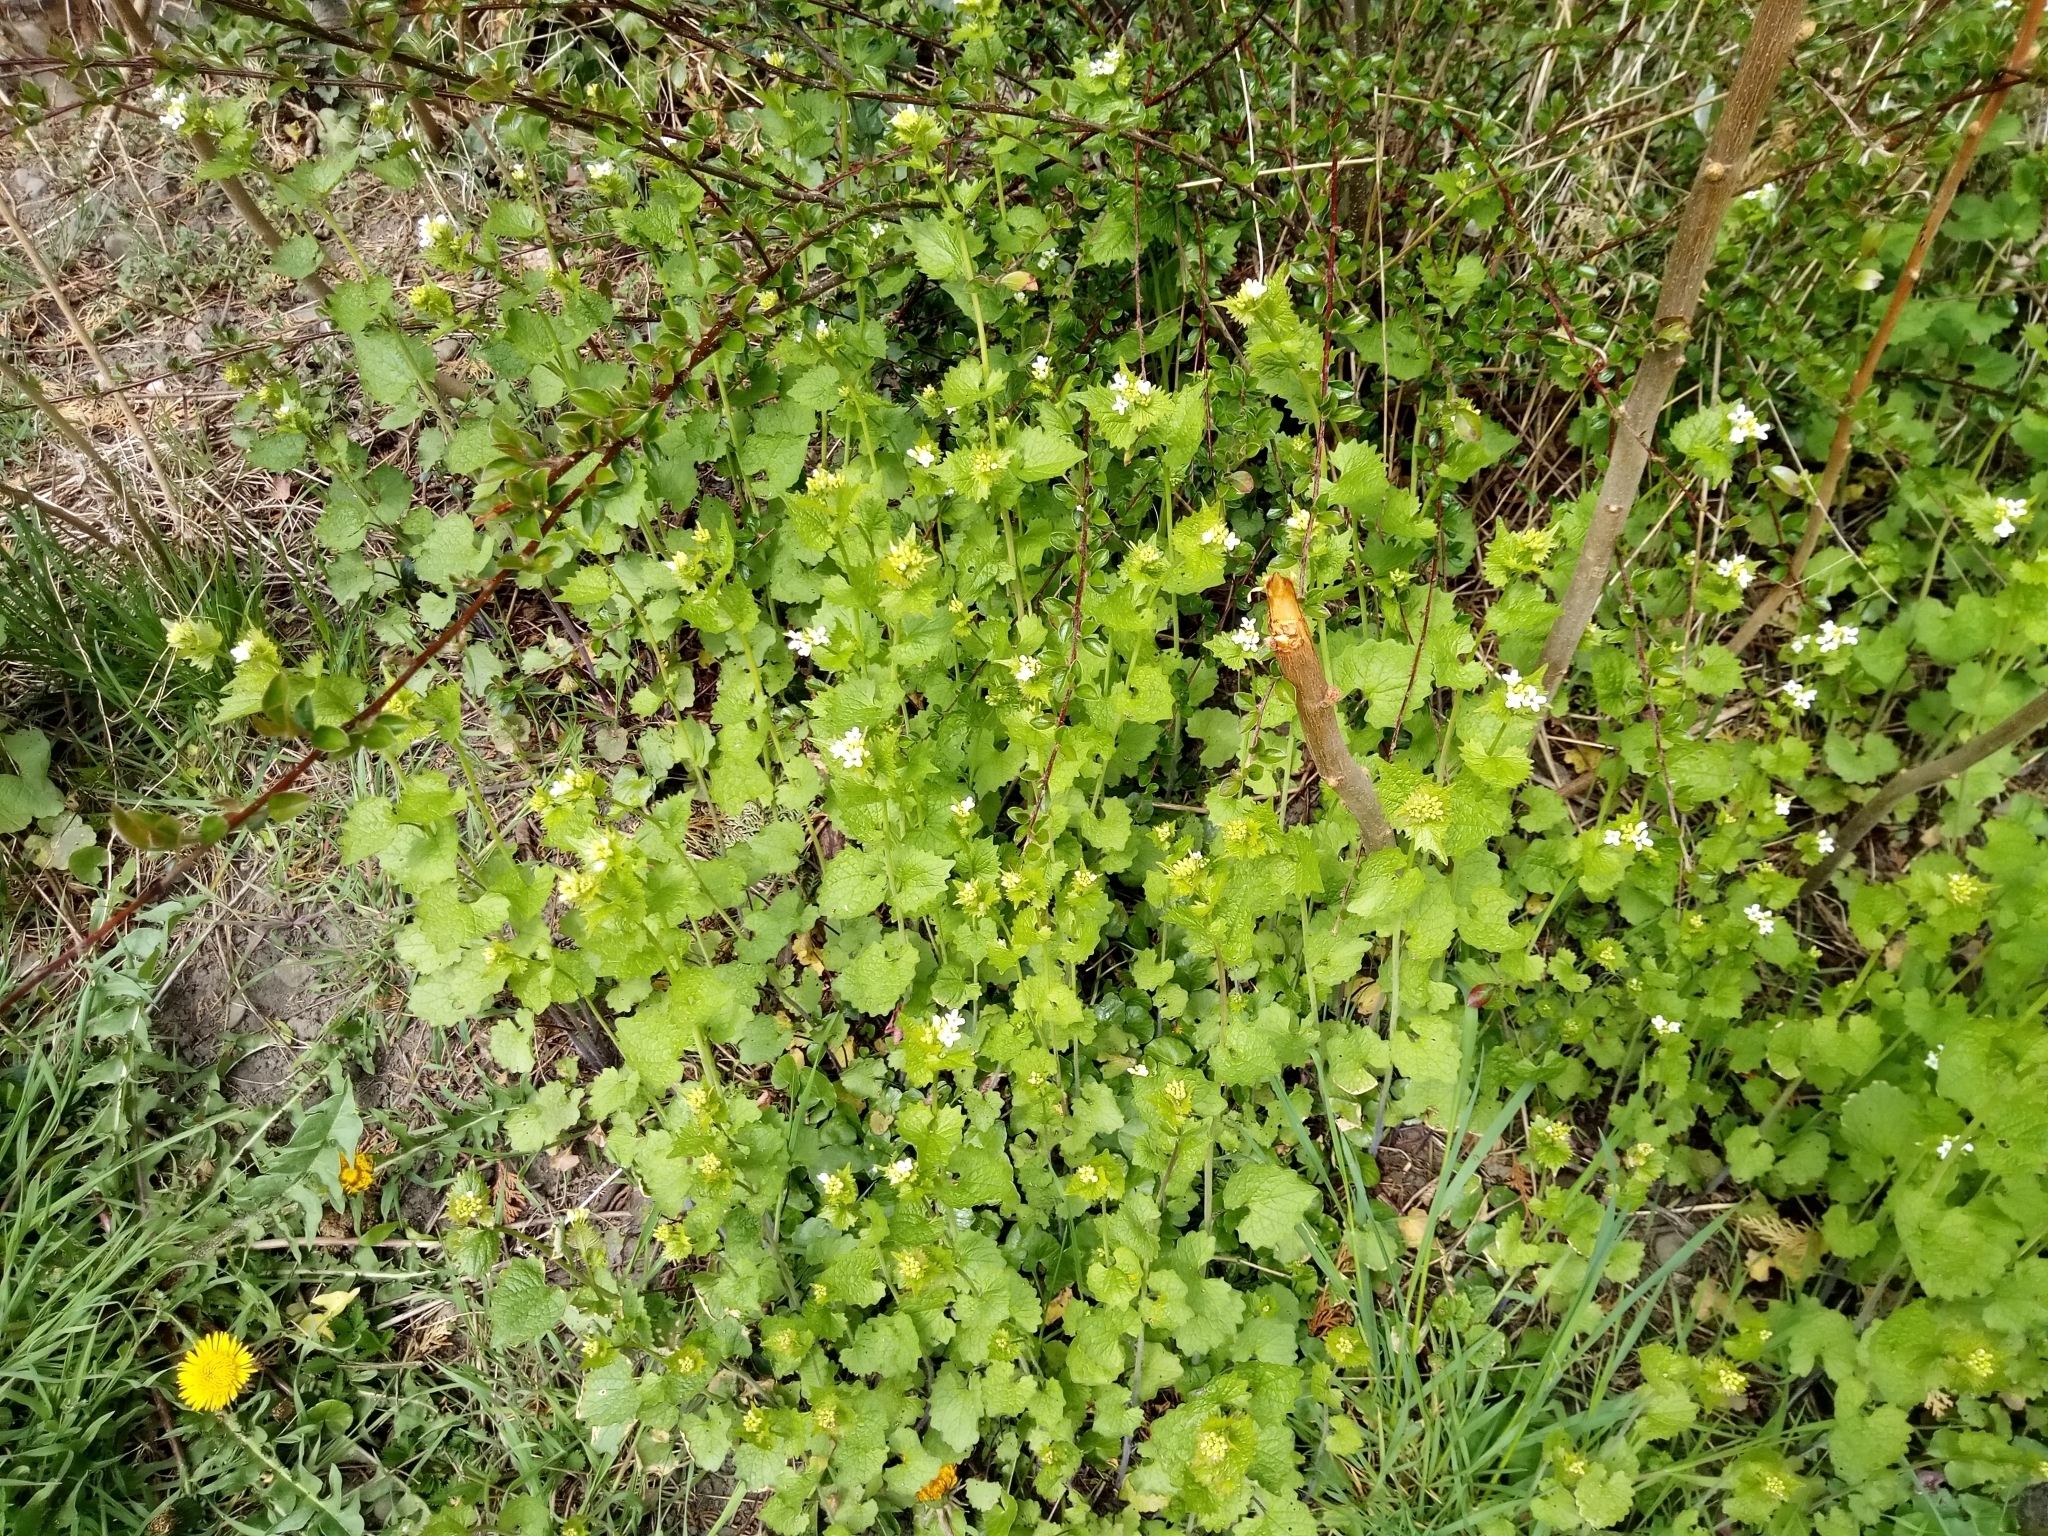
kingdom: Plantae
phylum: Tracheophyta
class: Magnoliopsida
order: Brassicales
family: Brassicaceae
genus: Alliaria
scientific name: Alliaria petiolata
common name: Garlic mustard
